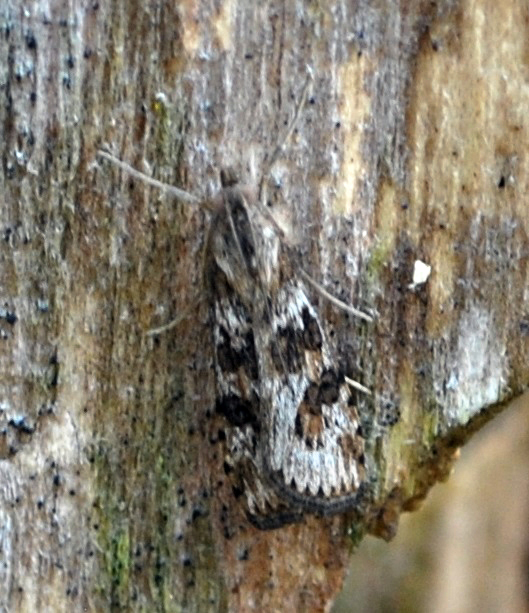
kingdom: Animalia
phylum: Arthropoda
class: Insecta
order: Lepidoptera
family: Crambidae
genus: Nomophila
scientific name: Nomophila nearctica
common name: American rush veneer
